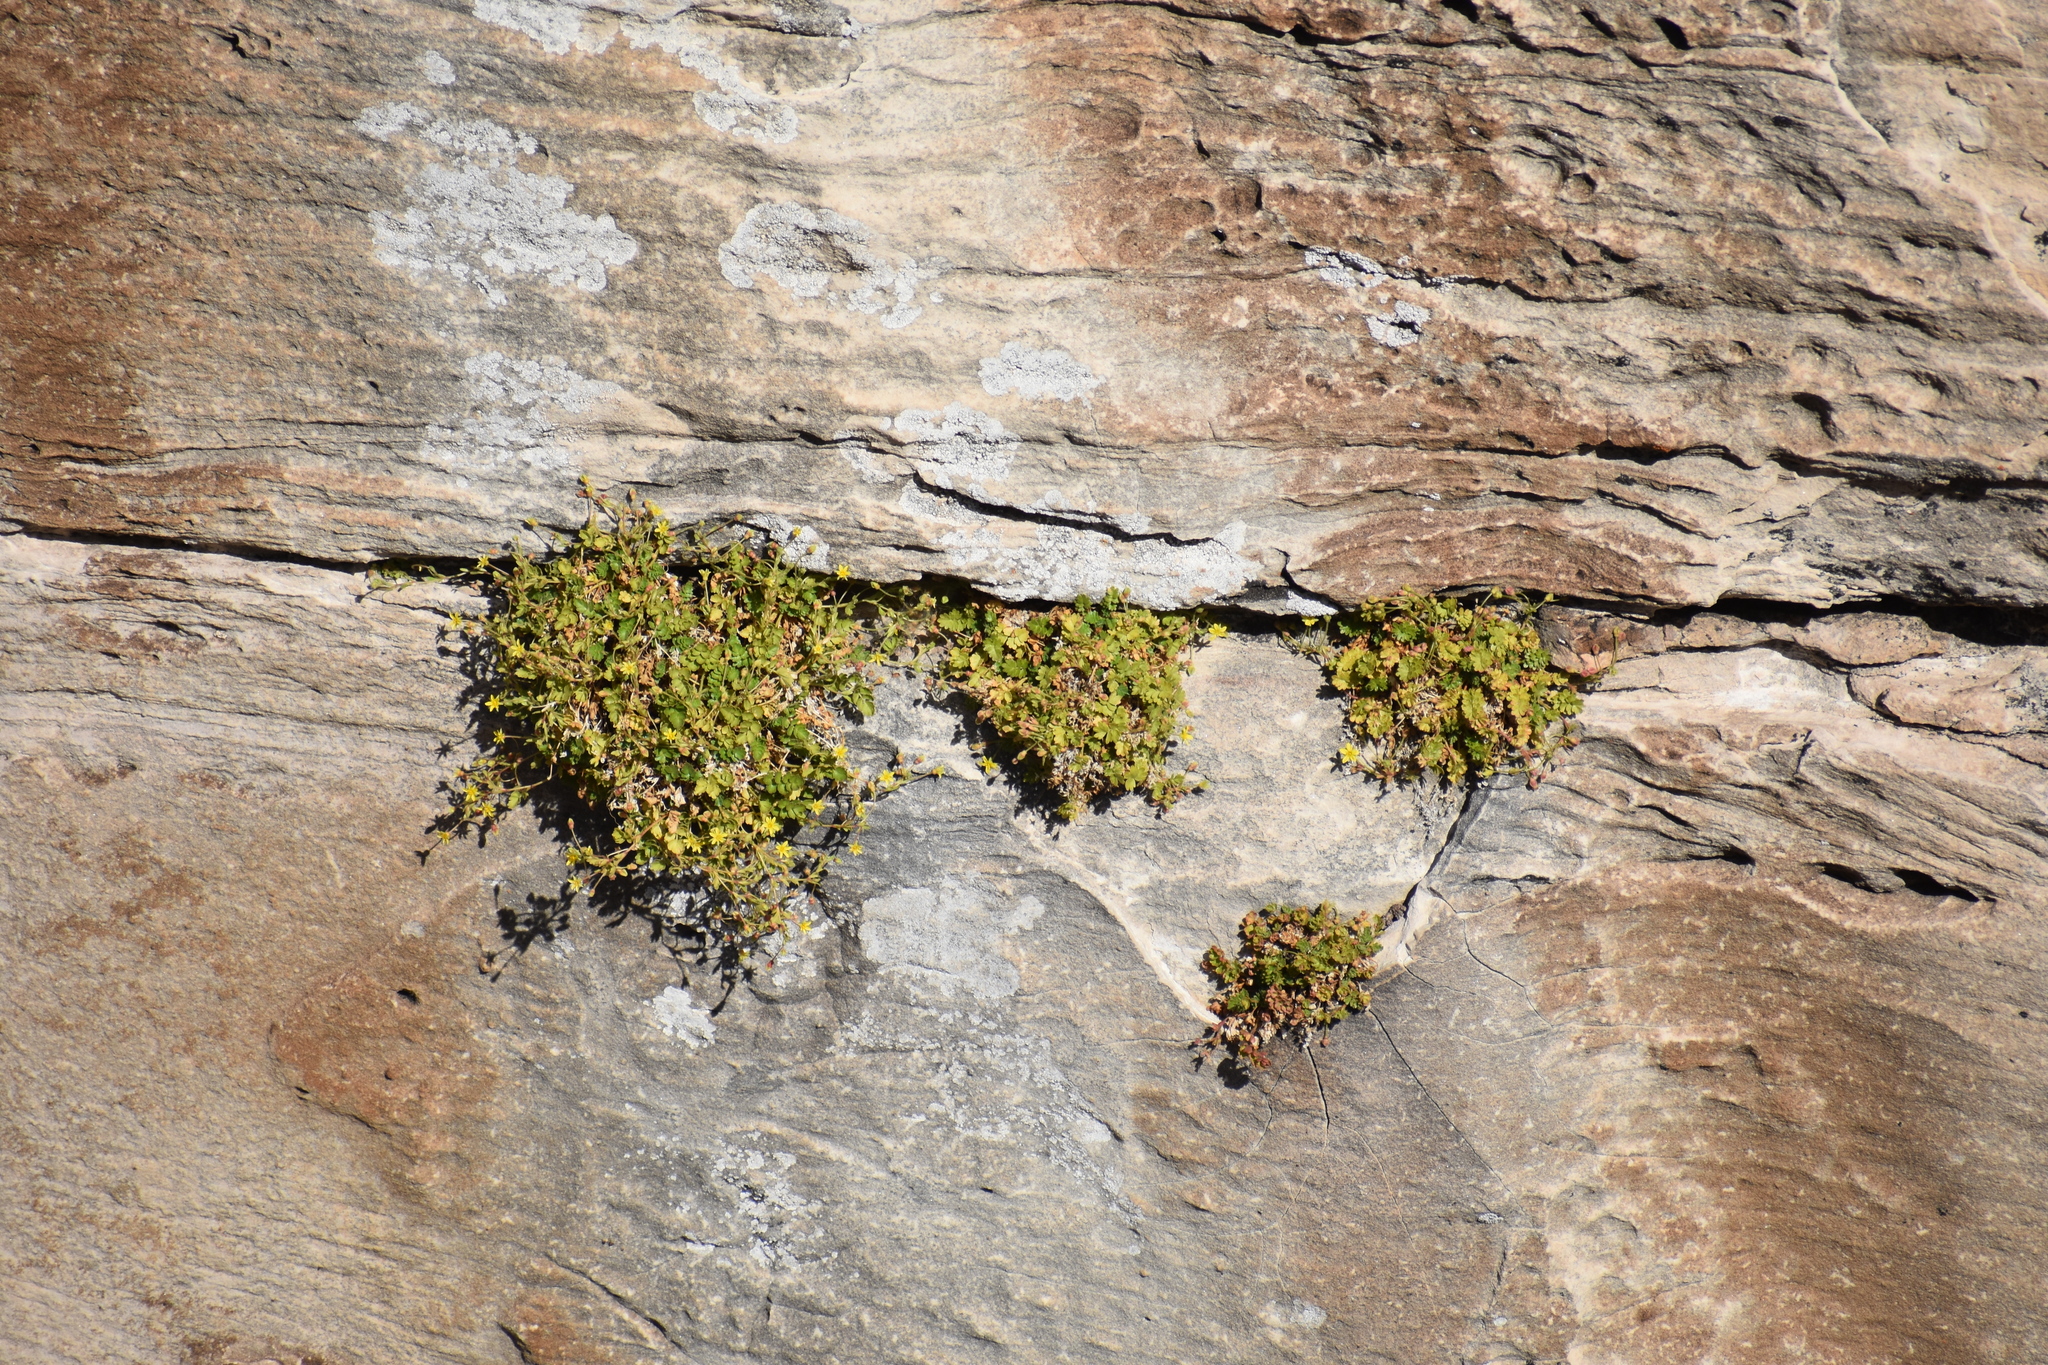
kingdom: Plantae
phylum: Tracheophyta
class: Magnoliopsida
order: Rosales
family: Rosaceae
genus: Potentilla
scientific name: Potentilla osterhoutii
